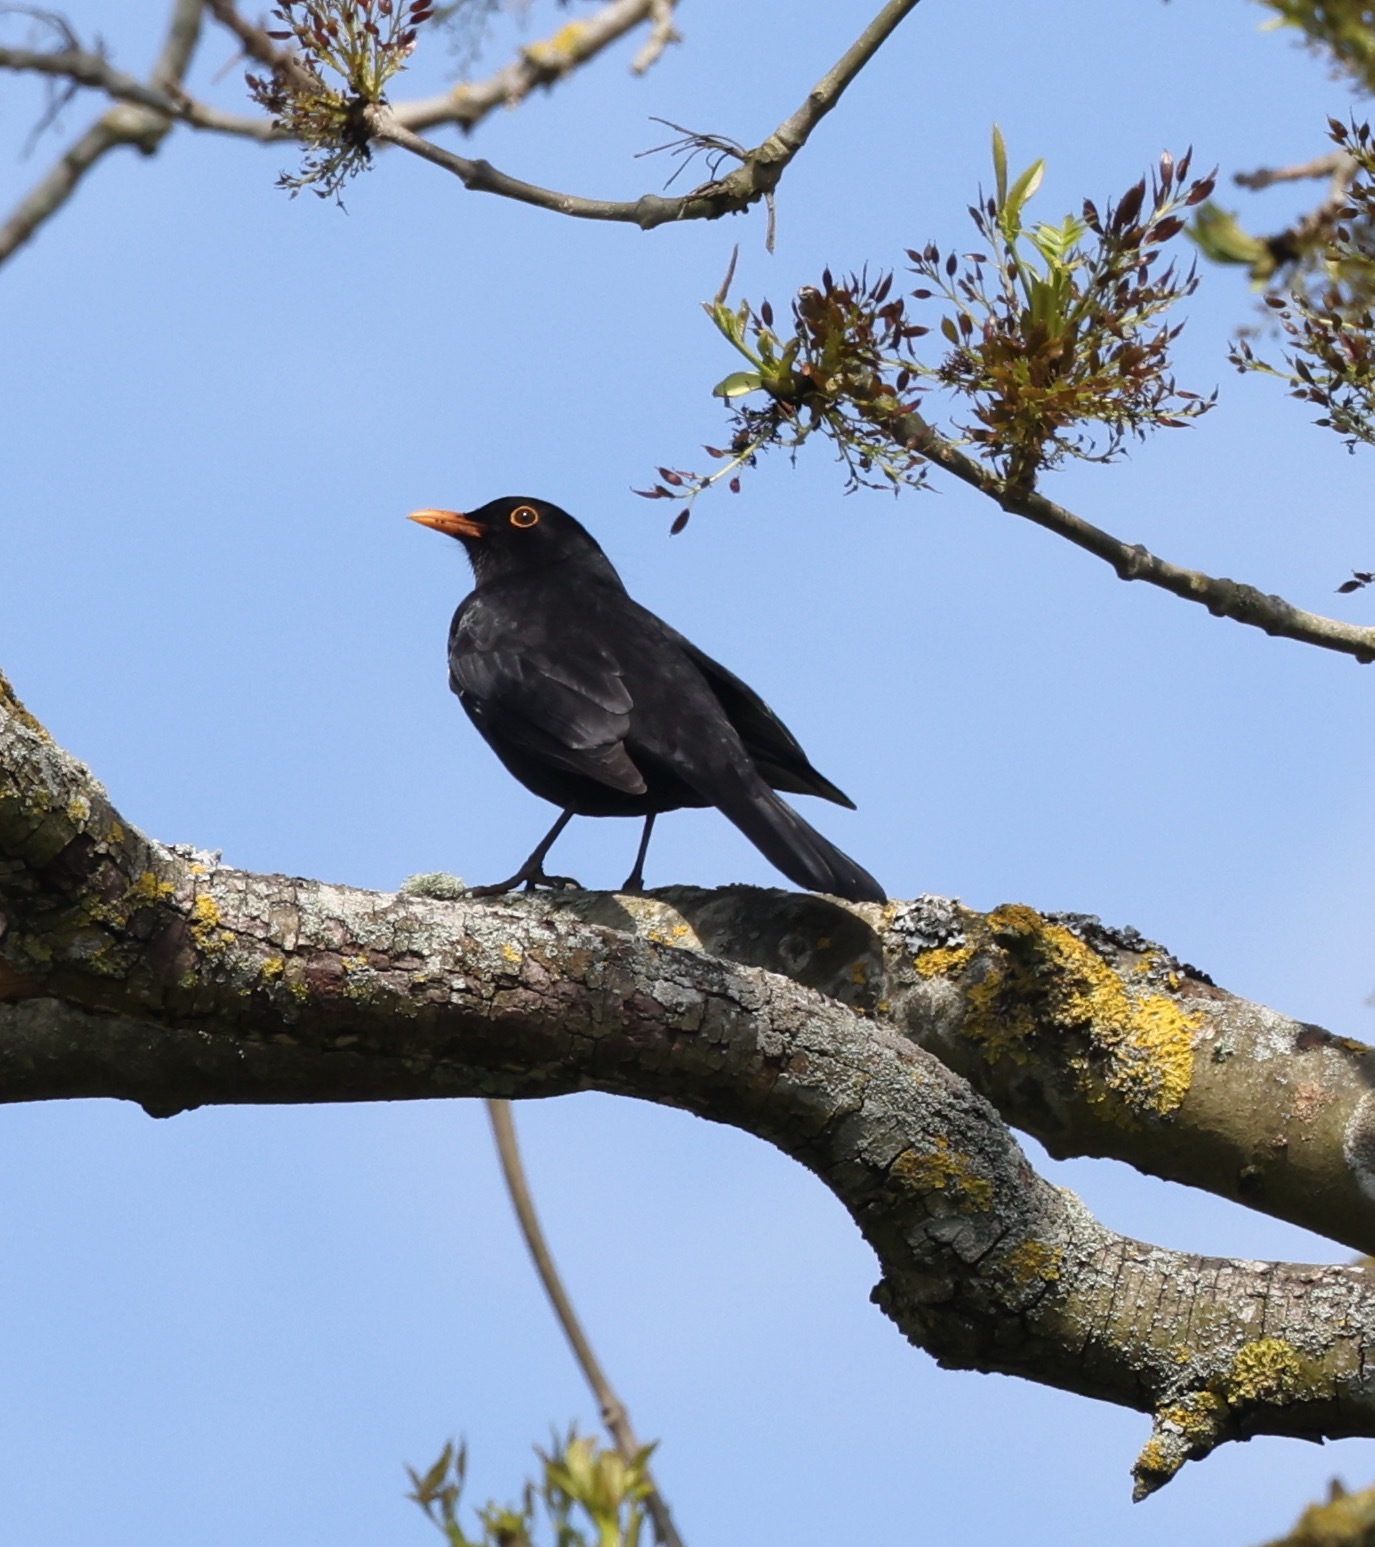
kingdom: Animalia
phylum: Chordata
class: Aves
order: Passeriformes
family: Turdidae
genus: Turdus
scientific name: Turdus merula
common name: Common blackbird
